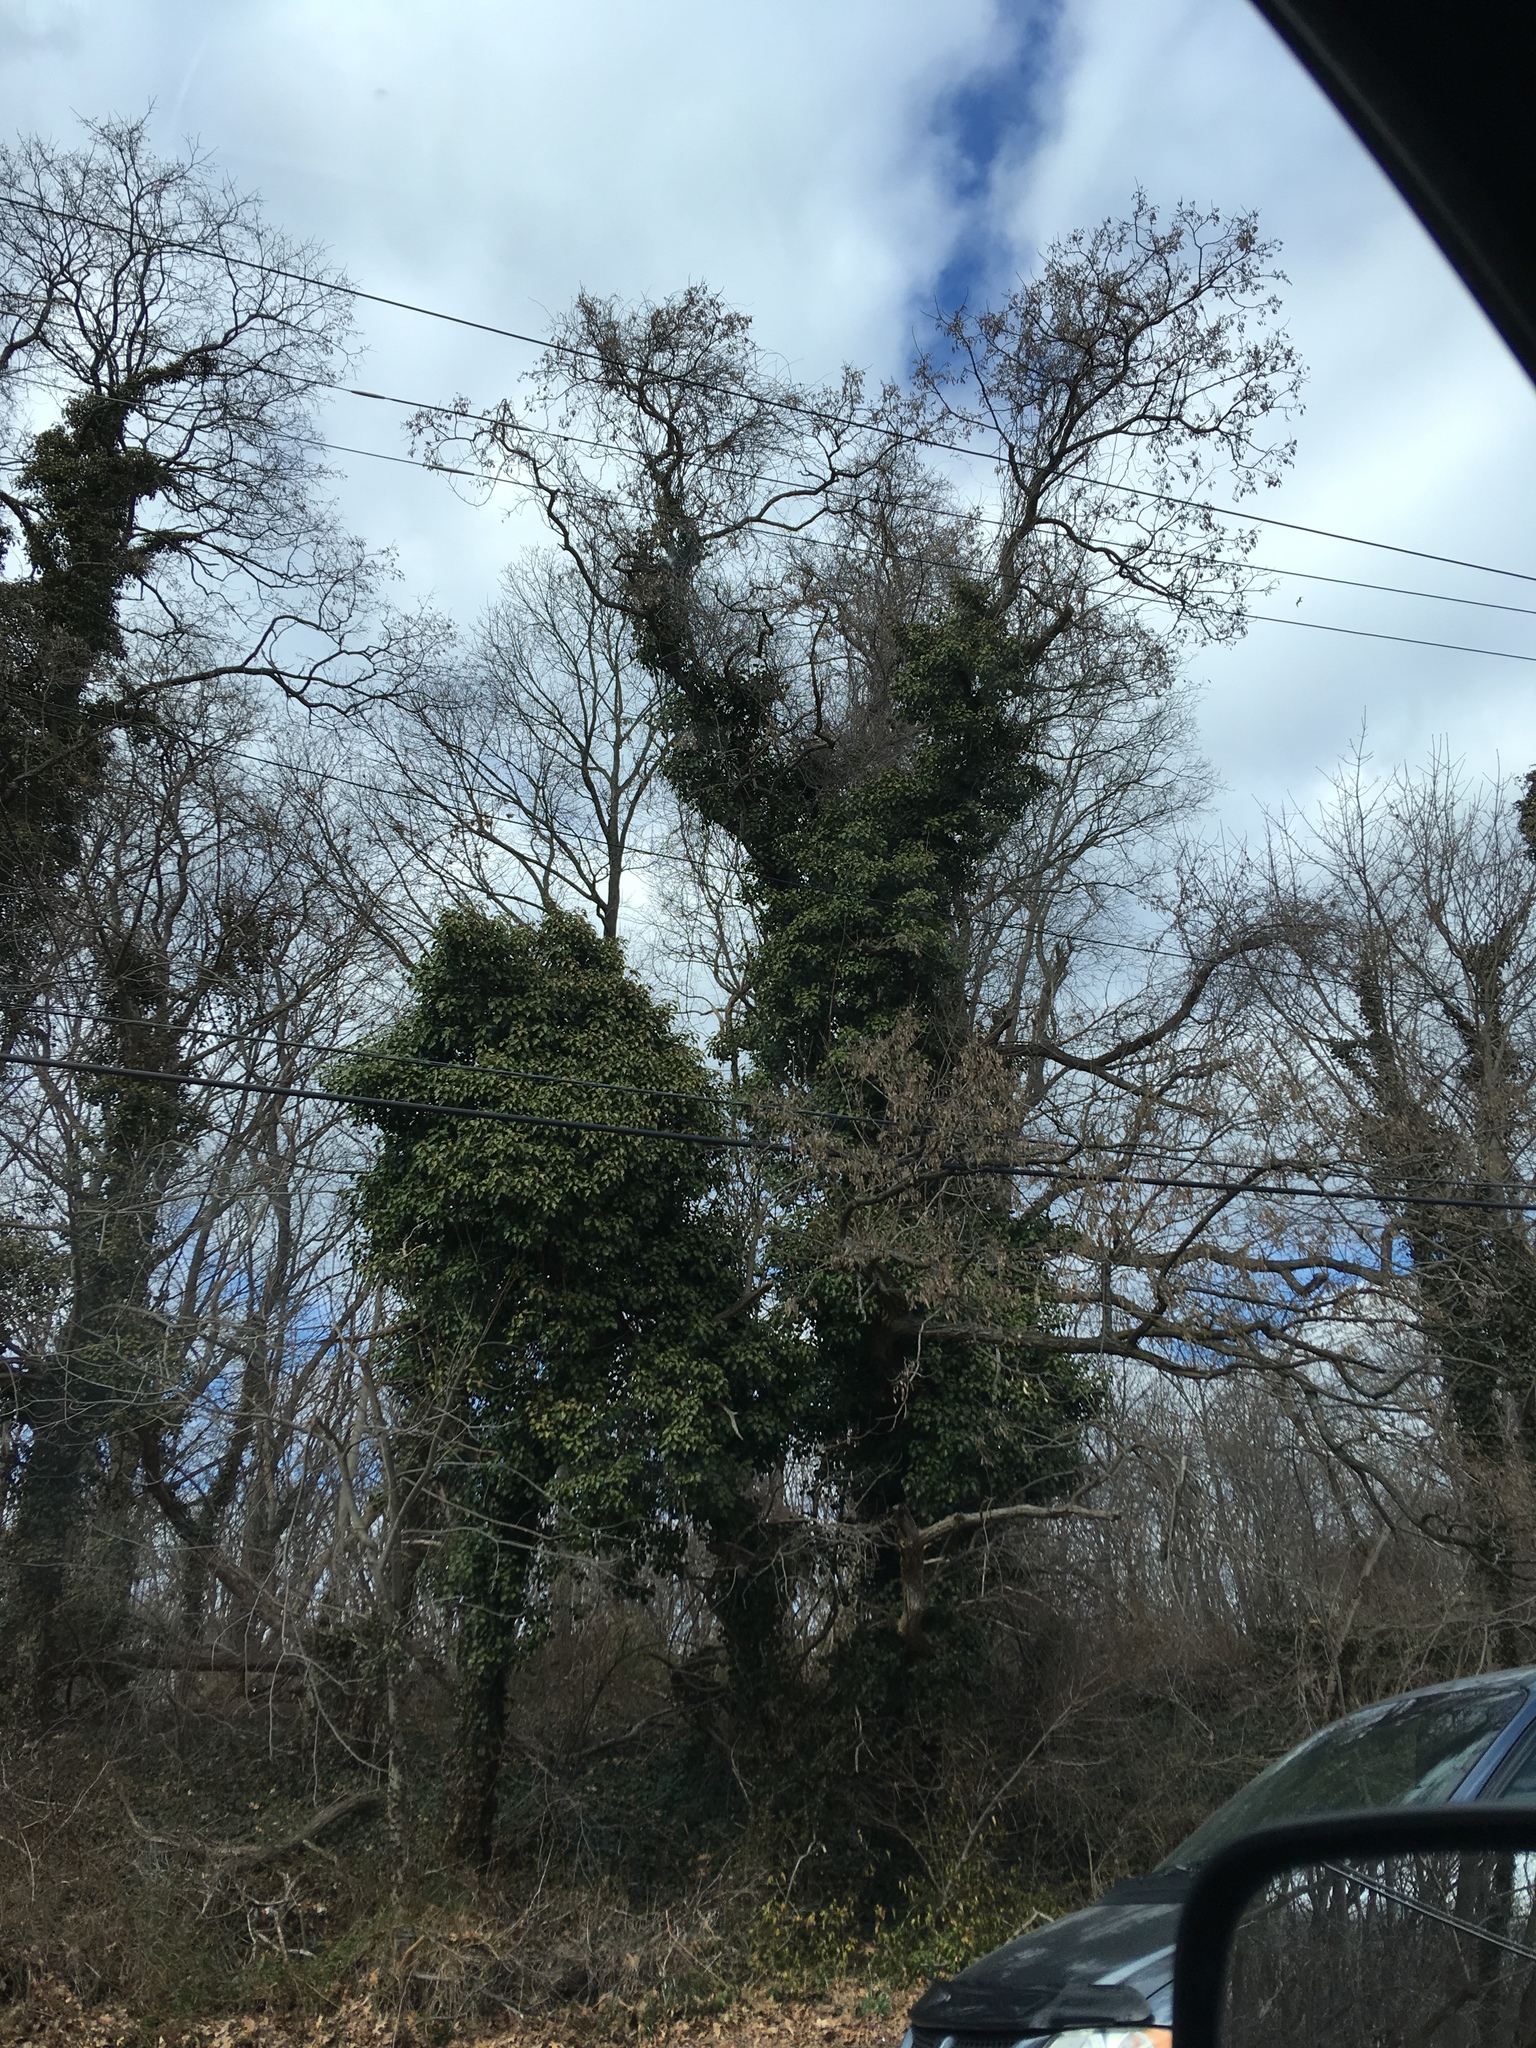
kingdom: Plantae
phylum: Tracheophyta
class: Magnoliopsida
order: Apiales
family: Araliaceae
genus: Hedera
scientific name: Hedera helix
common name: Ivy
